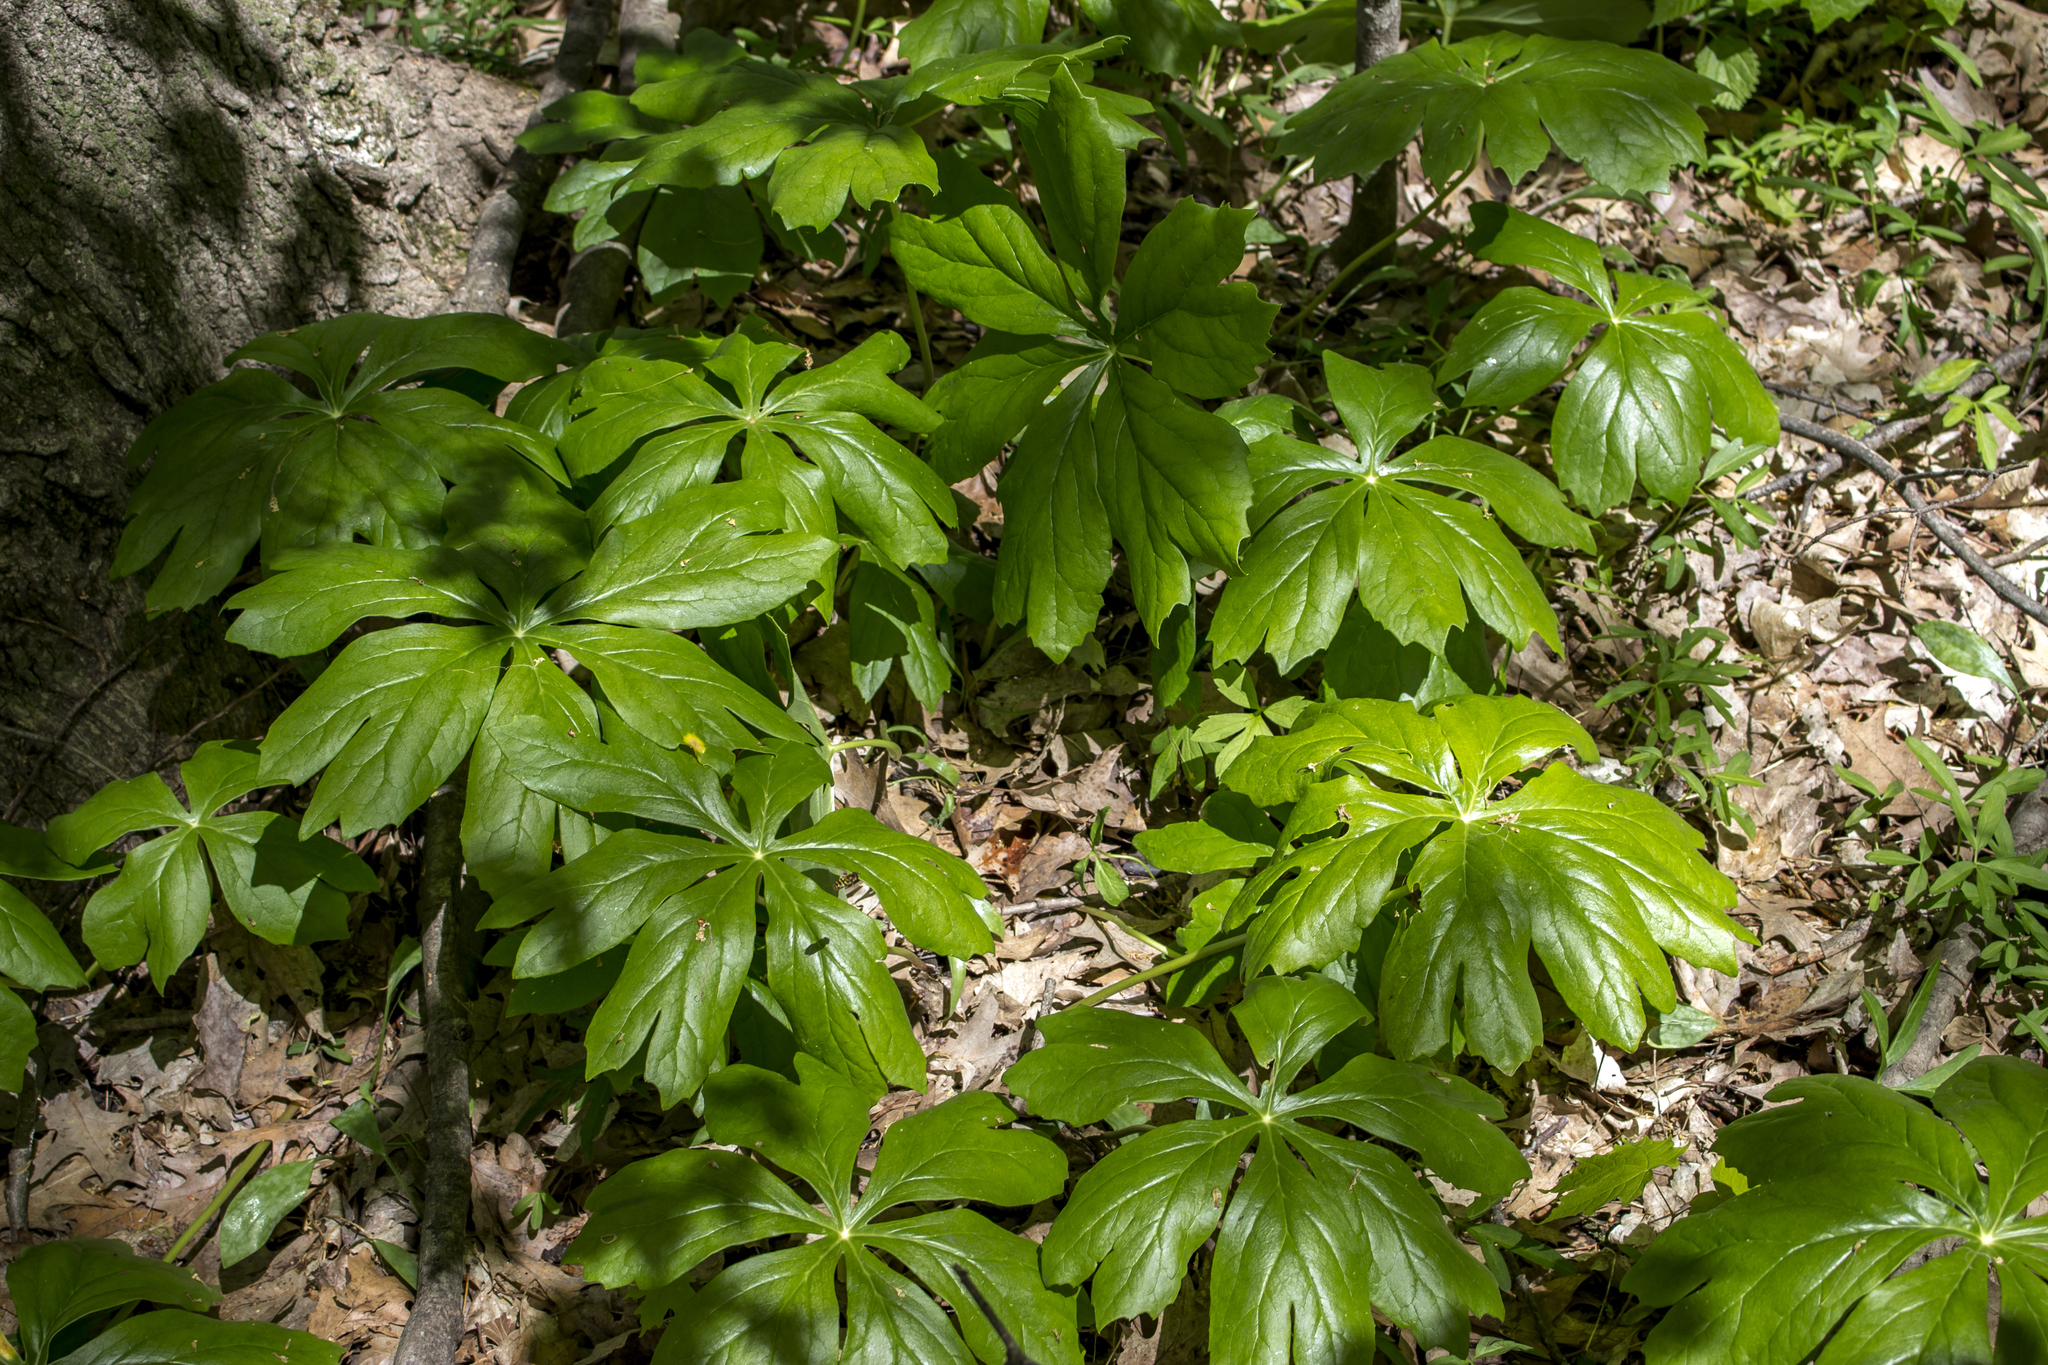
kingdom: Plantae
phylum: Tracheophyta
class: Magnoliopsida
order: Ranunculales
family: Berberidaceae
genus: Podophyllum
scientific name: Podophyllum peltatum
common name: Wild mandrake
